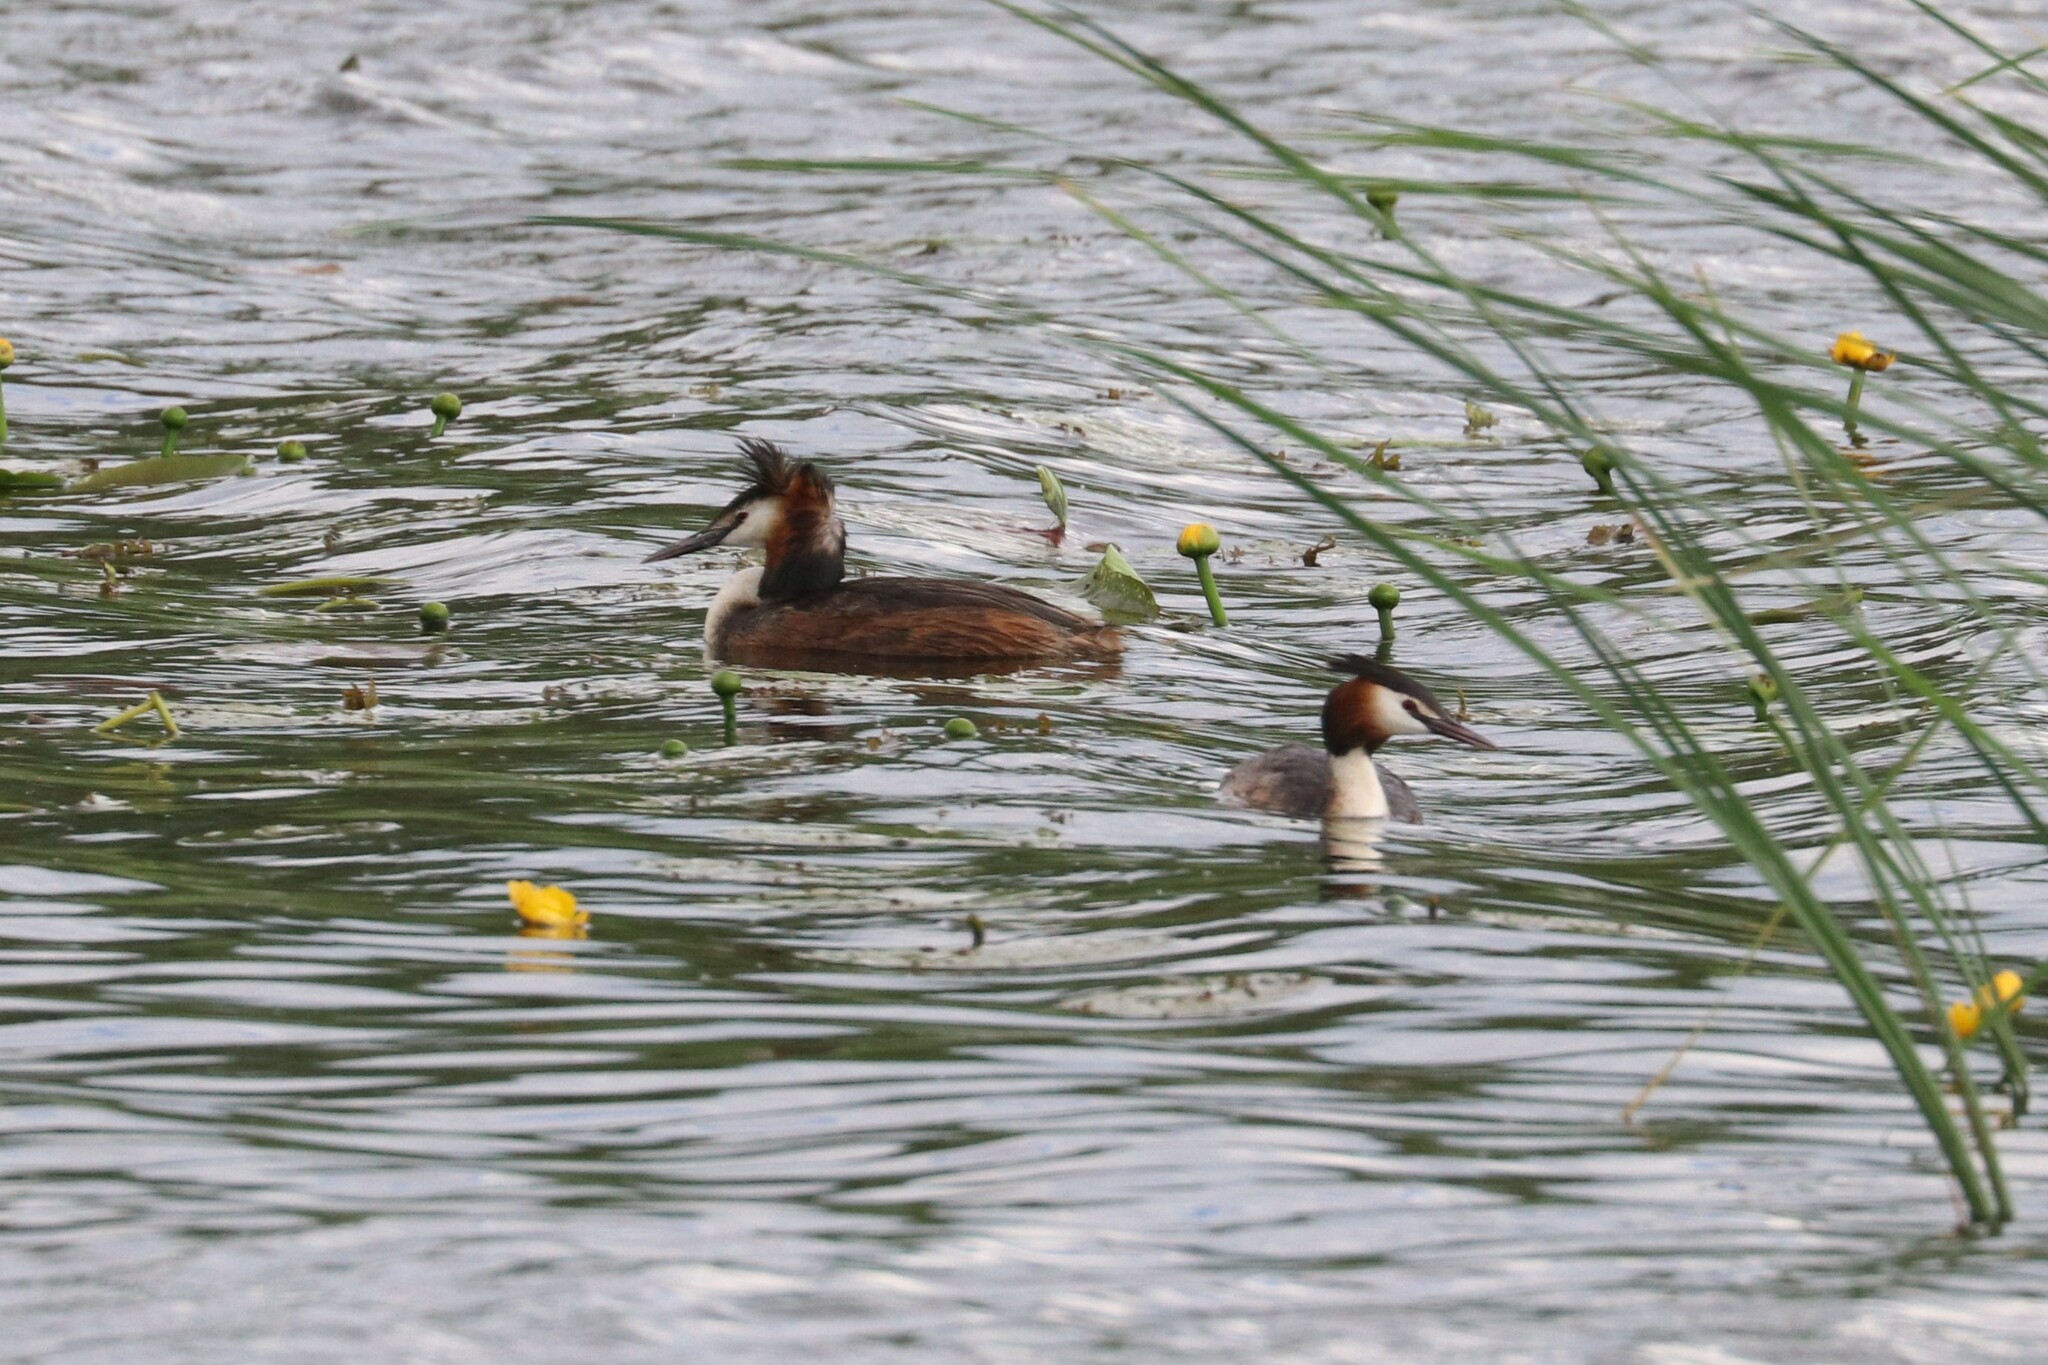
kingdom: Animalia
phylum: Chordata
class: Aves
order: Podicipediformes
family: Podicipedidae
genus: Podiceps
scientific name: Podiceps cristatus
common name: Great crested grebe
